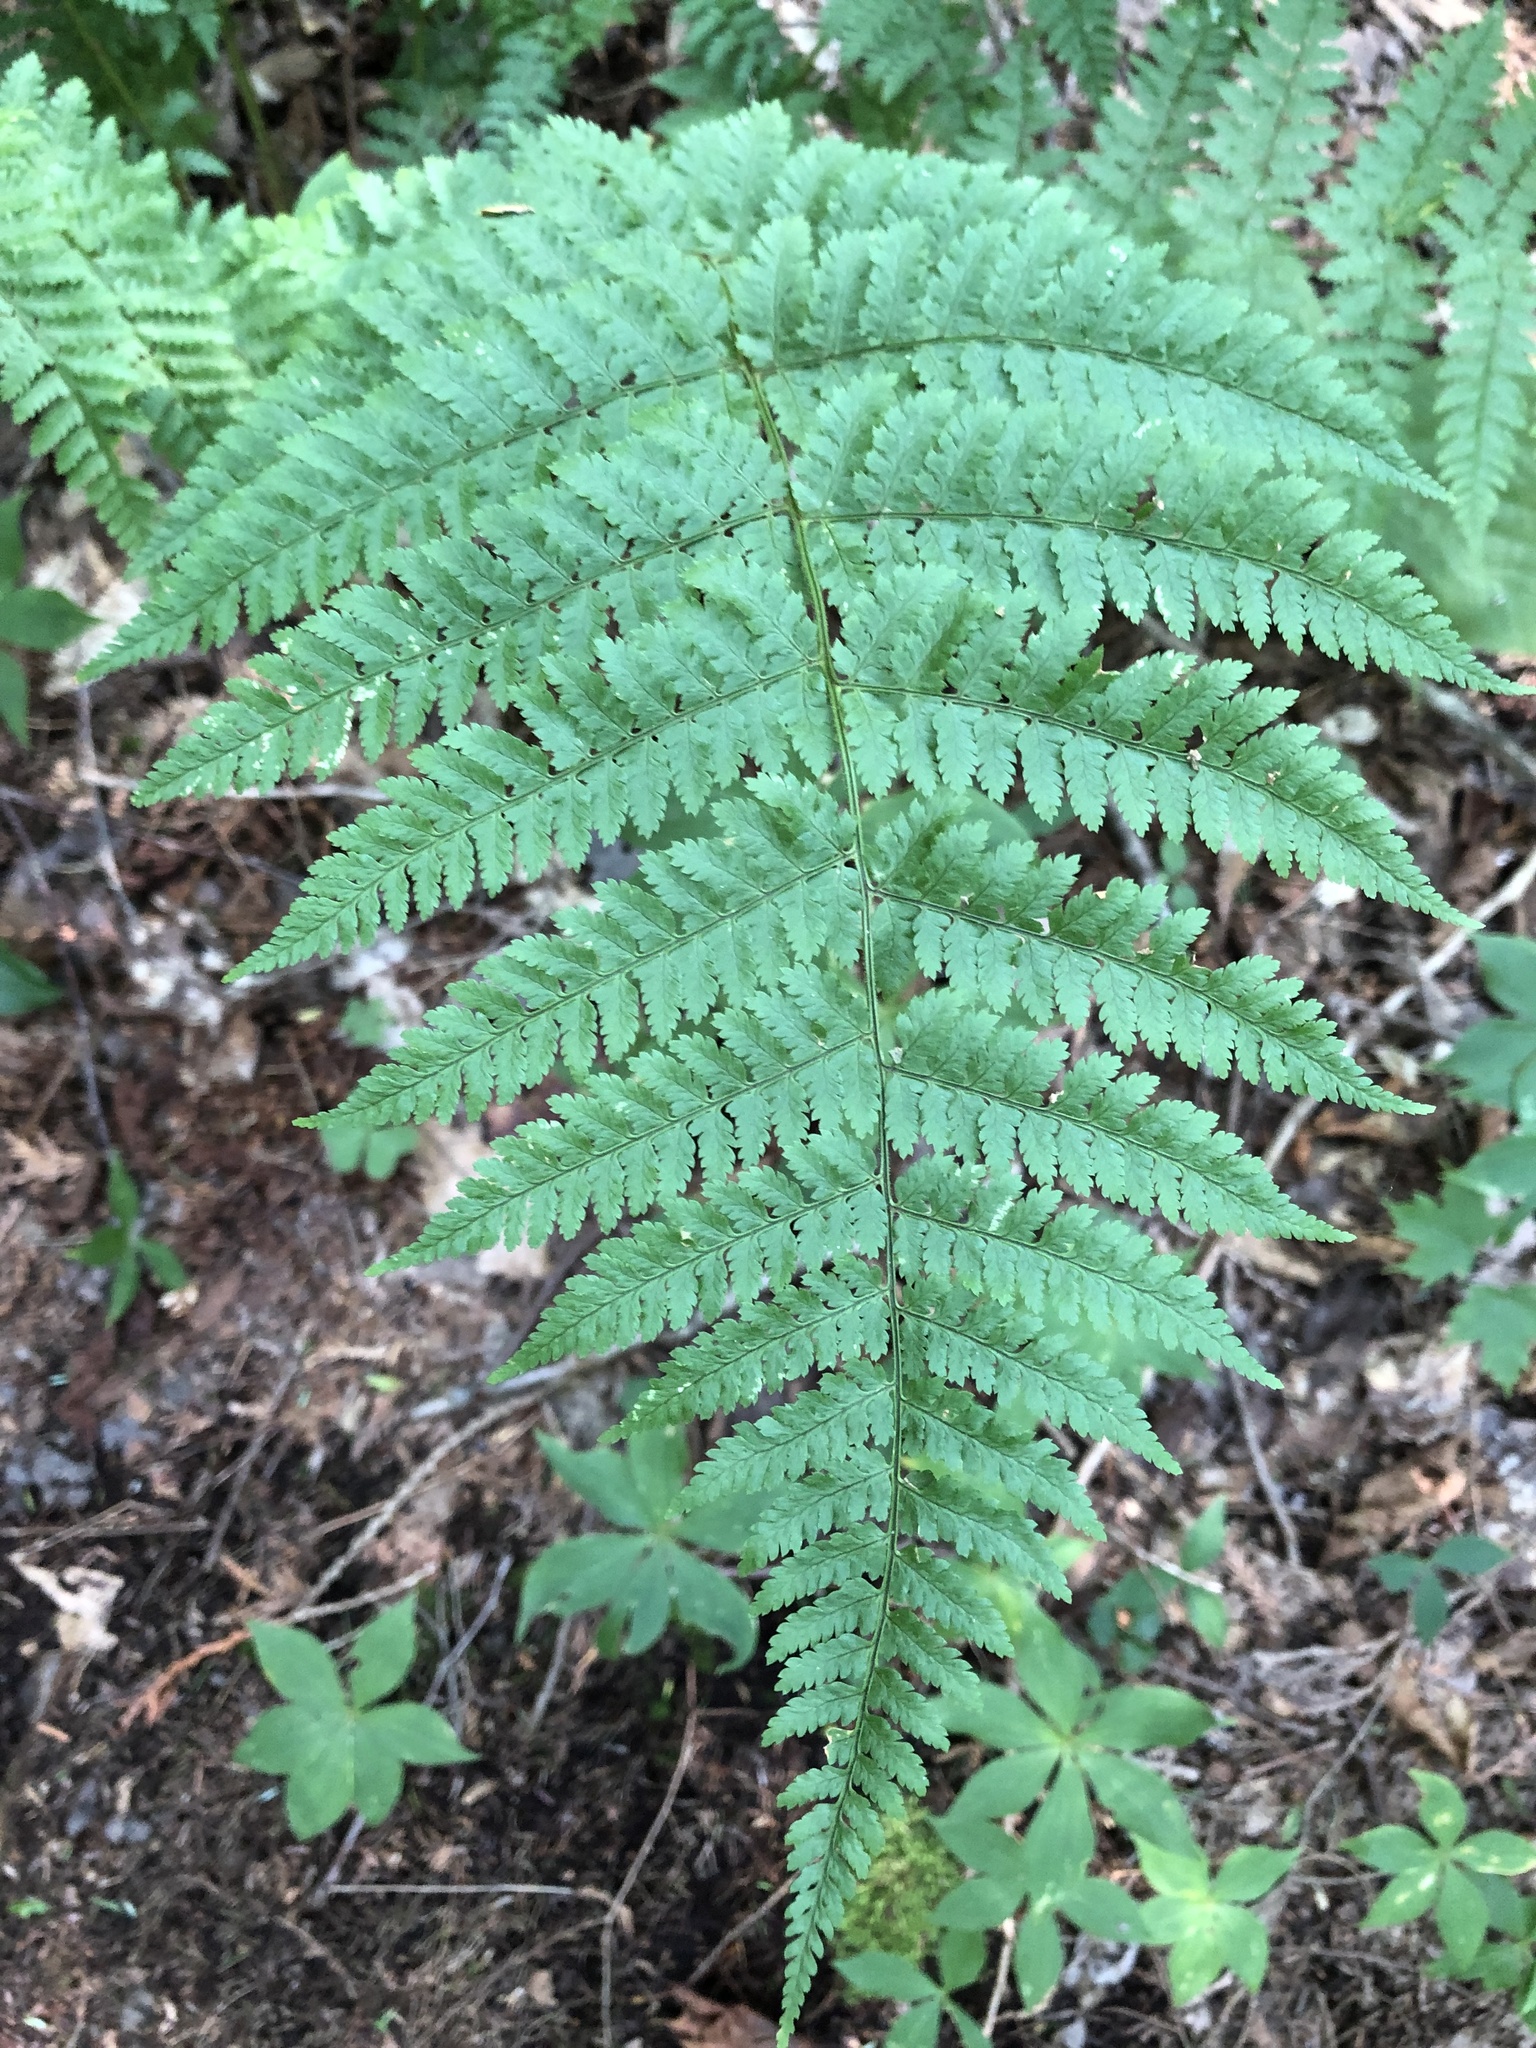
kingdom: Plantae
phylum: Tracheophyta
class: Polypodiopsida
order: Polypodiales
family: Dryopteridaceae
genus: Dryopteris
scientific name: Dryopteris intermedia
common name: Evergreen wood fern
